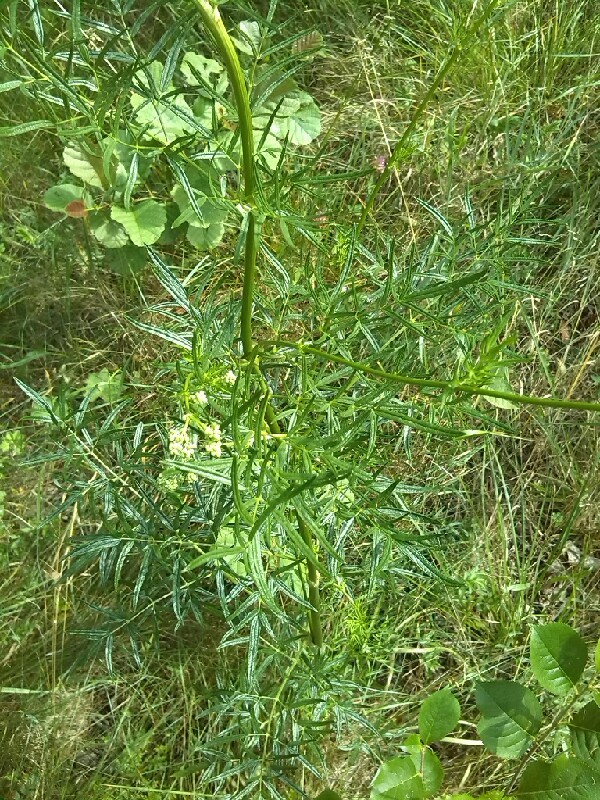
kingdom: Plantae
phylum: Tracheophyta
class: Magnoliopsida
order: Ranunculales
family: Ranunculaceae
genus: Thalictrum
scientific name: Thalictrum lucidum
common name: Shining meadow-rue
